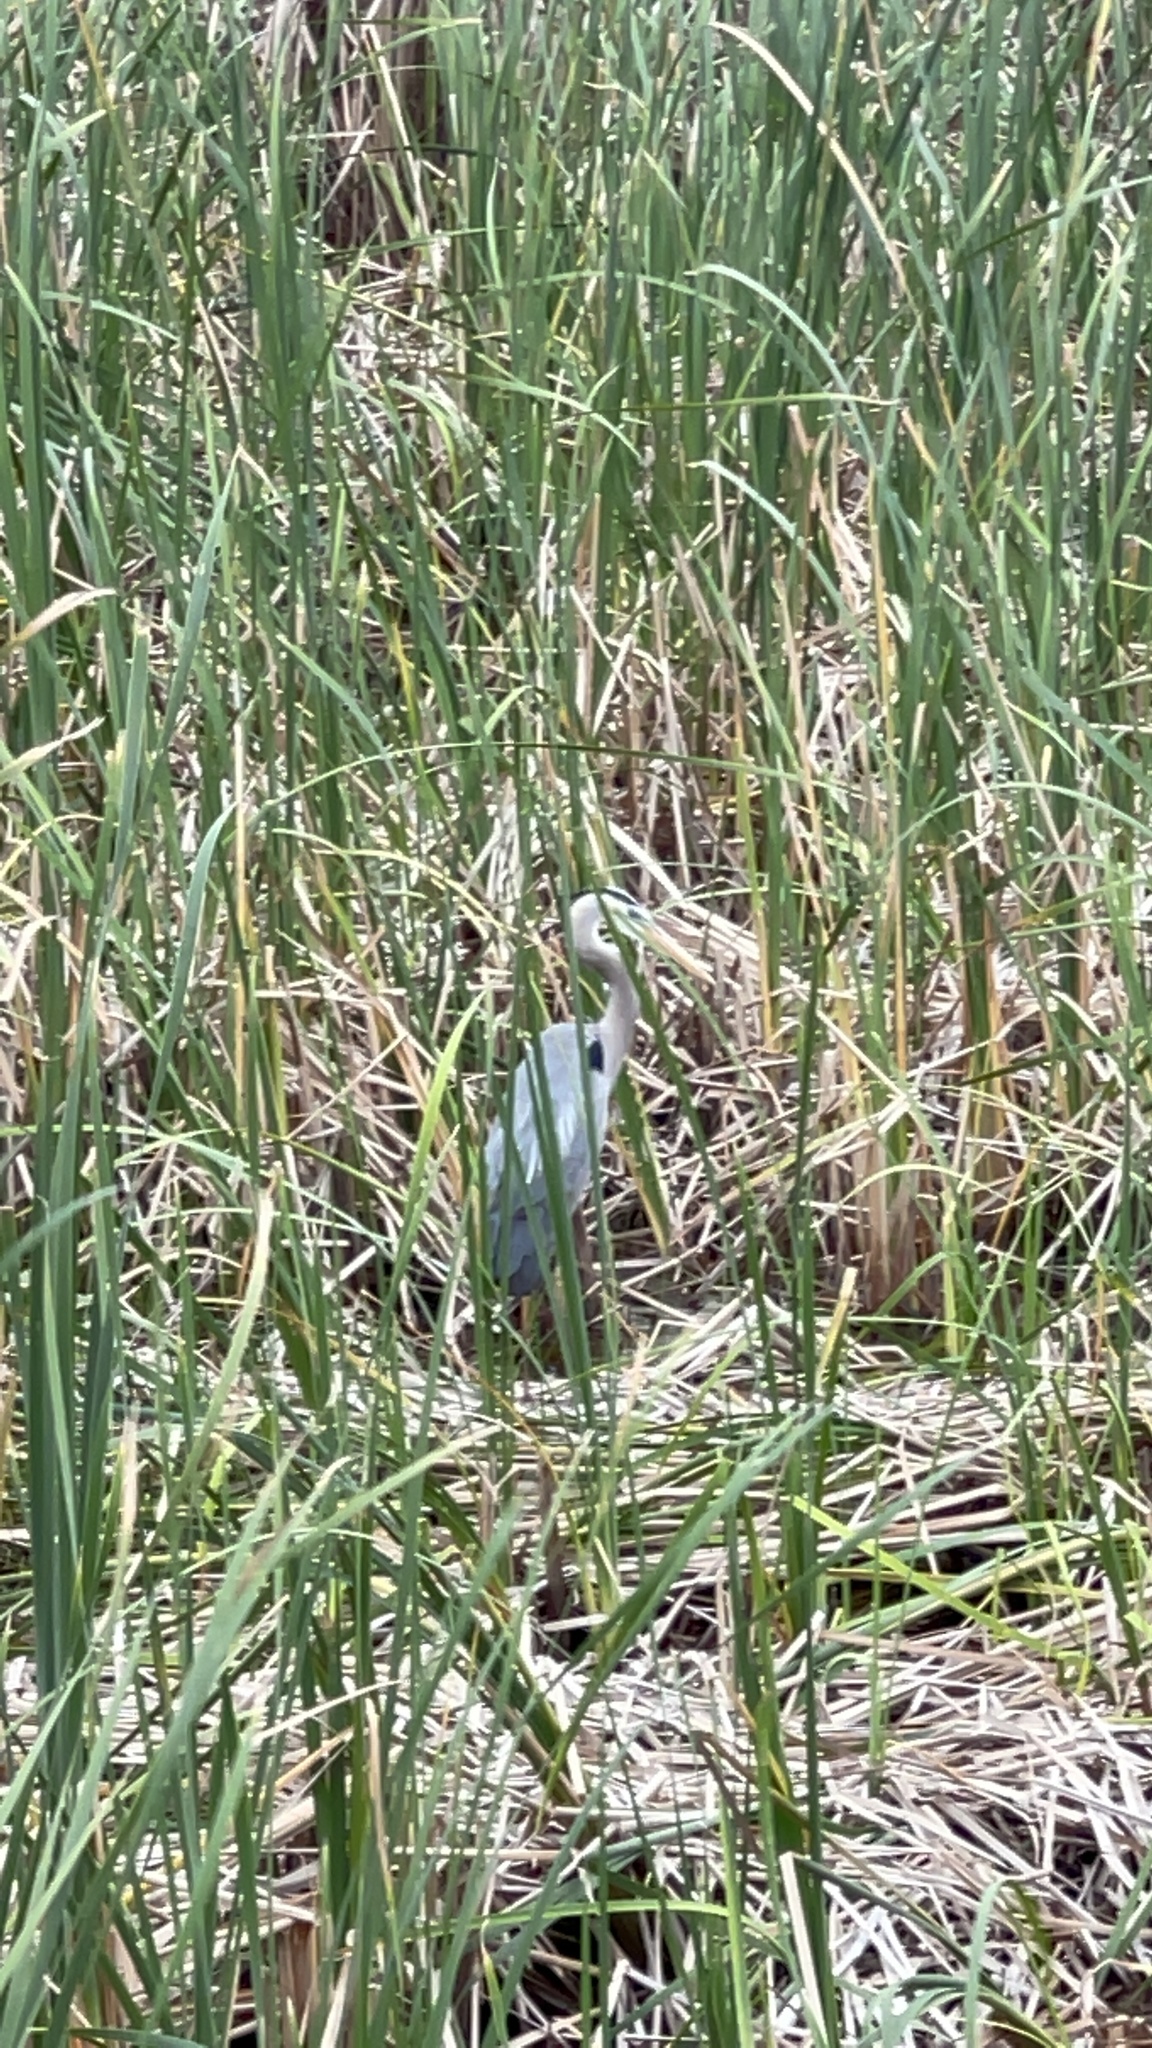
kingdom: Animalia
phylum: Chordata
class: Aves
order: Pelecaniformes
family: Ardeidae
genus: Ardea
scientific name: Ardea herodias
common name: Great blue heron
